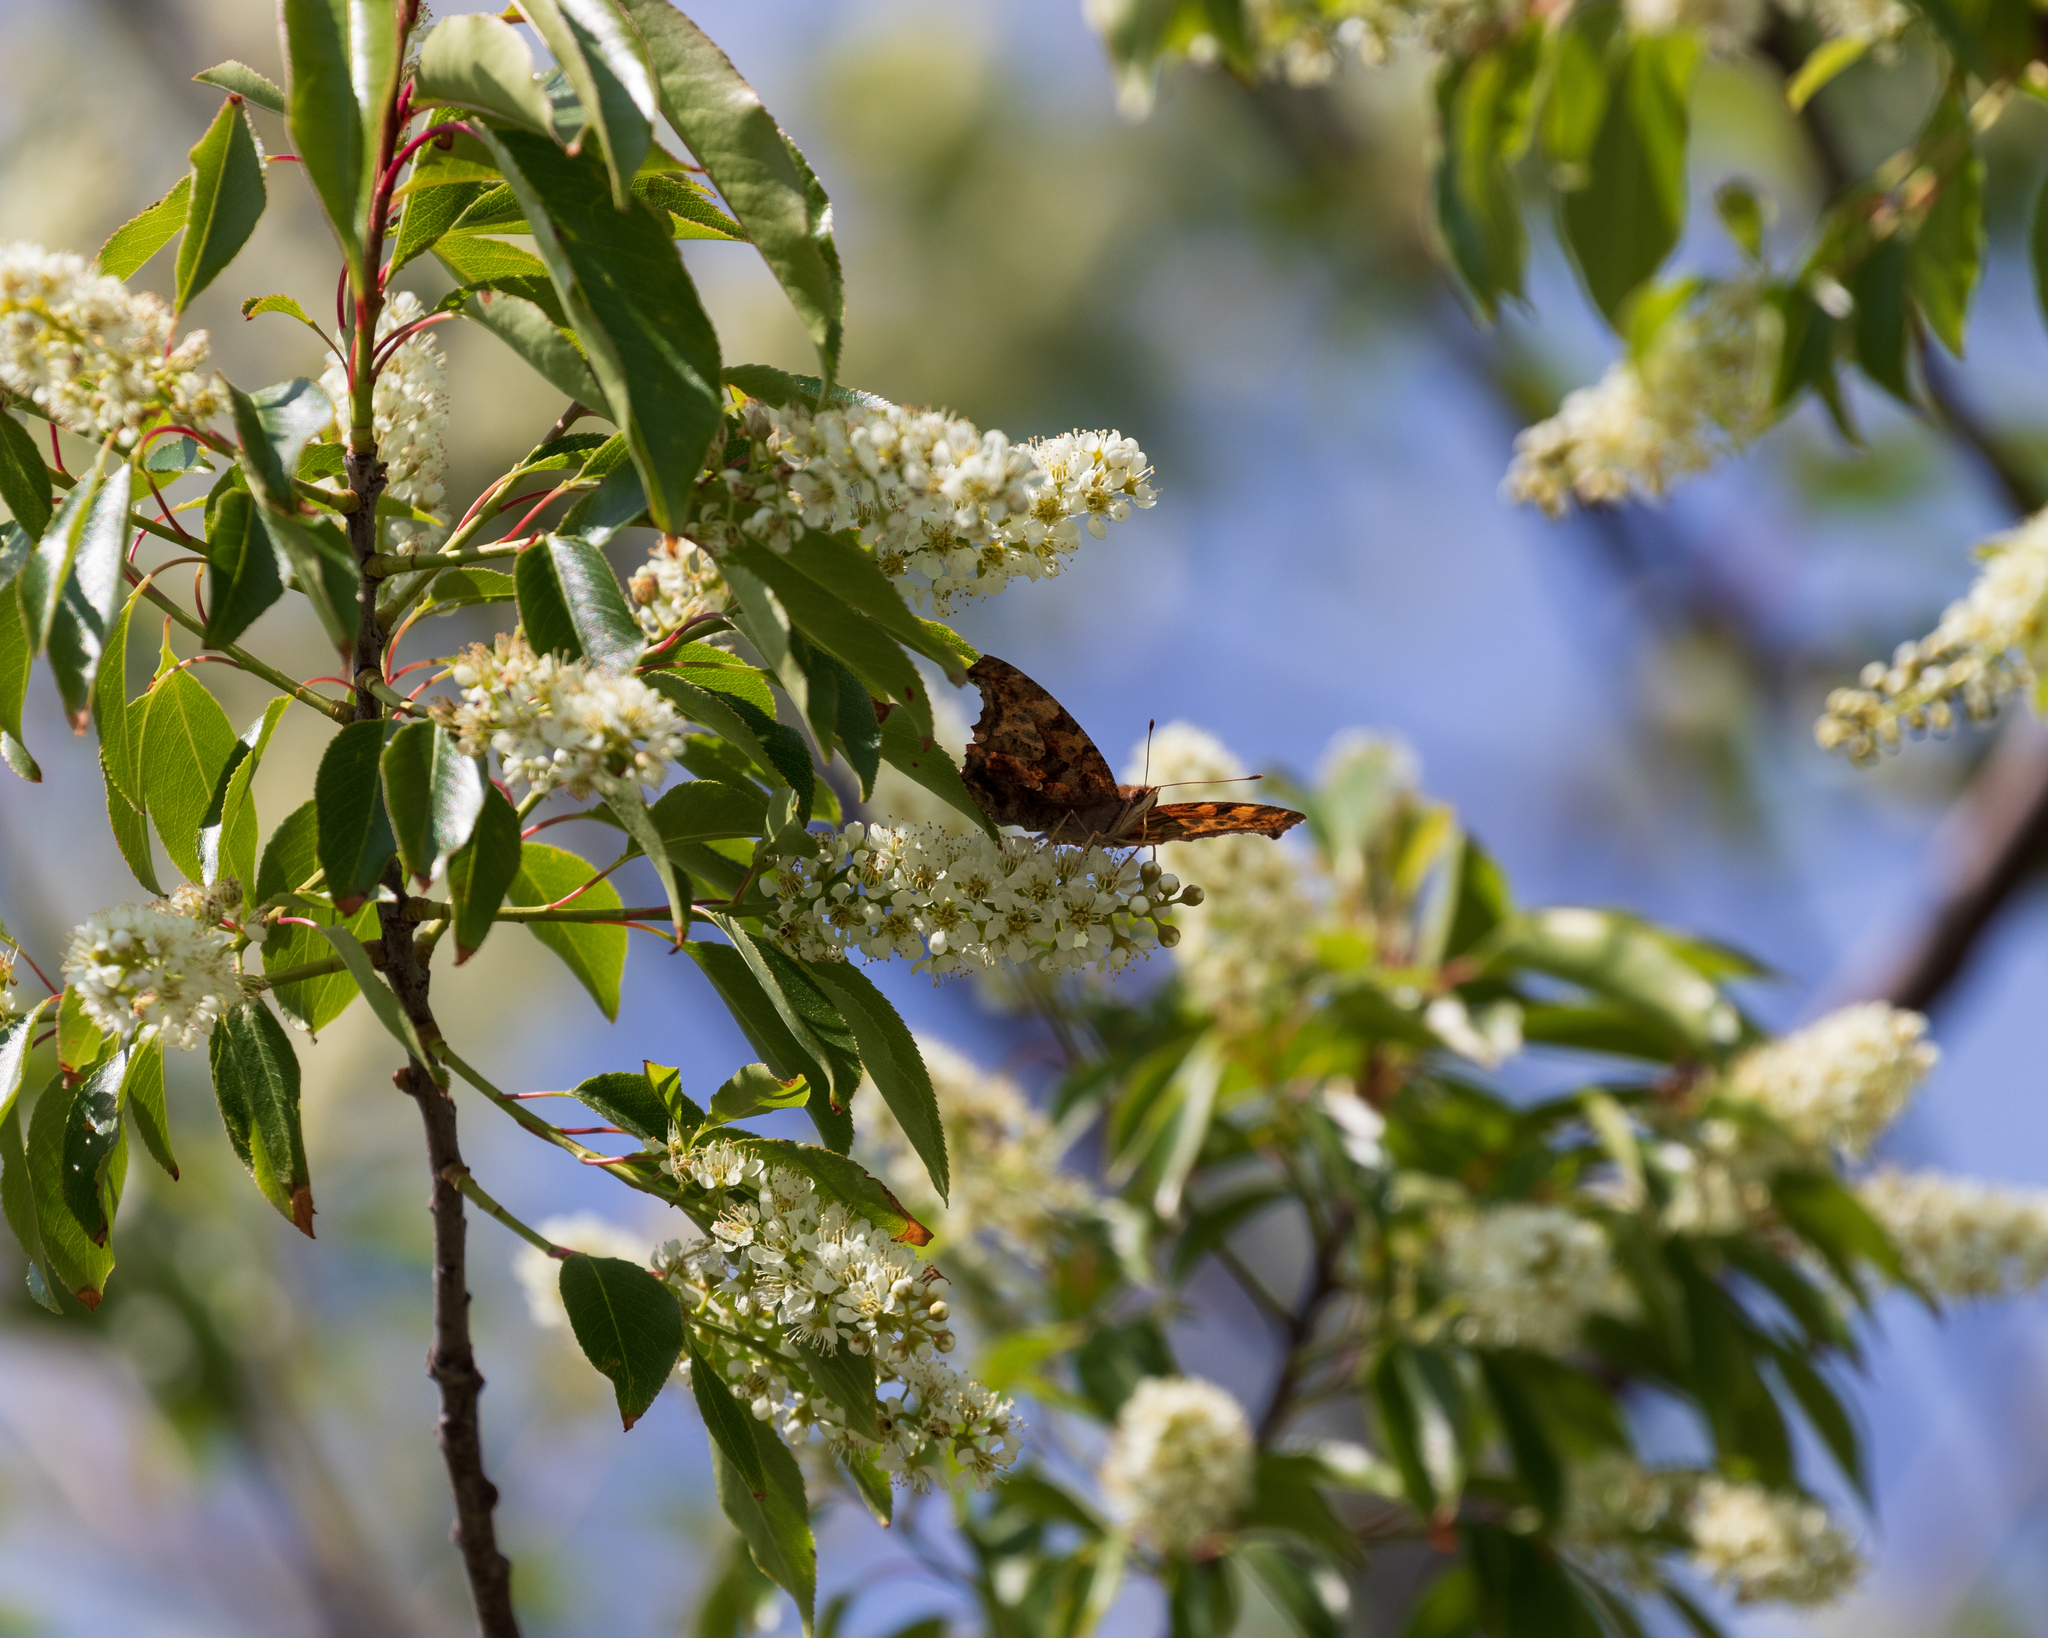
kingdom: Animalia
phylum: Arthropoda
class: Insecta
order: Lepidoptera
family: Nymphalidae
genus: Polygonia
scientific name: Polygonia interrogationis
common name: Question mark
